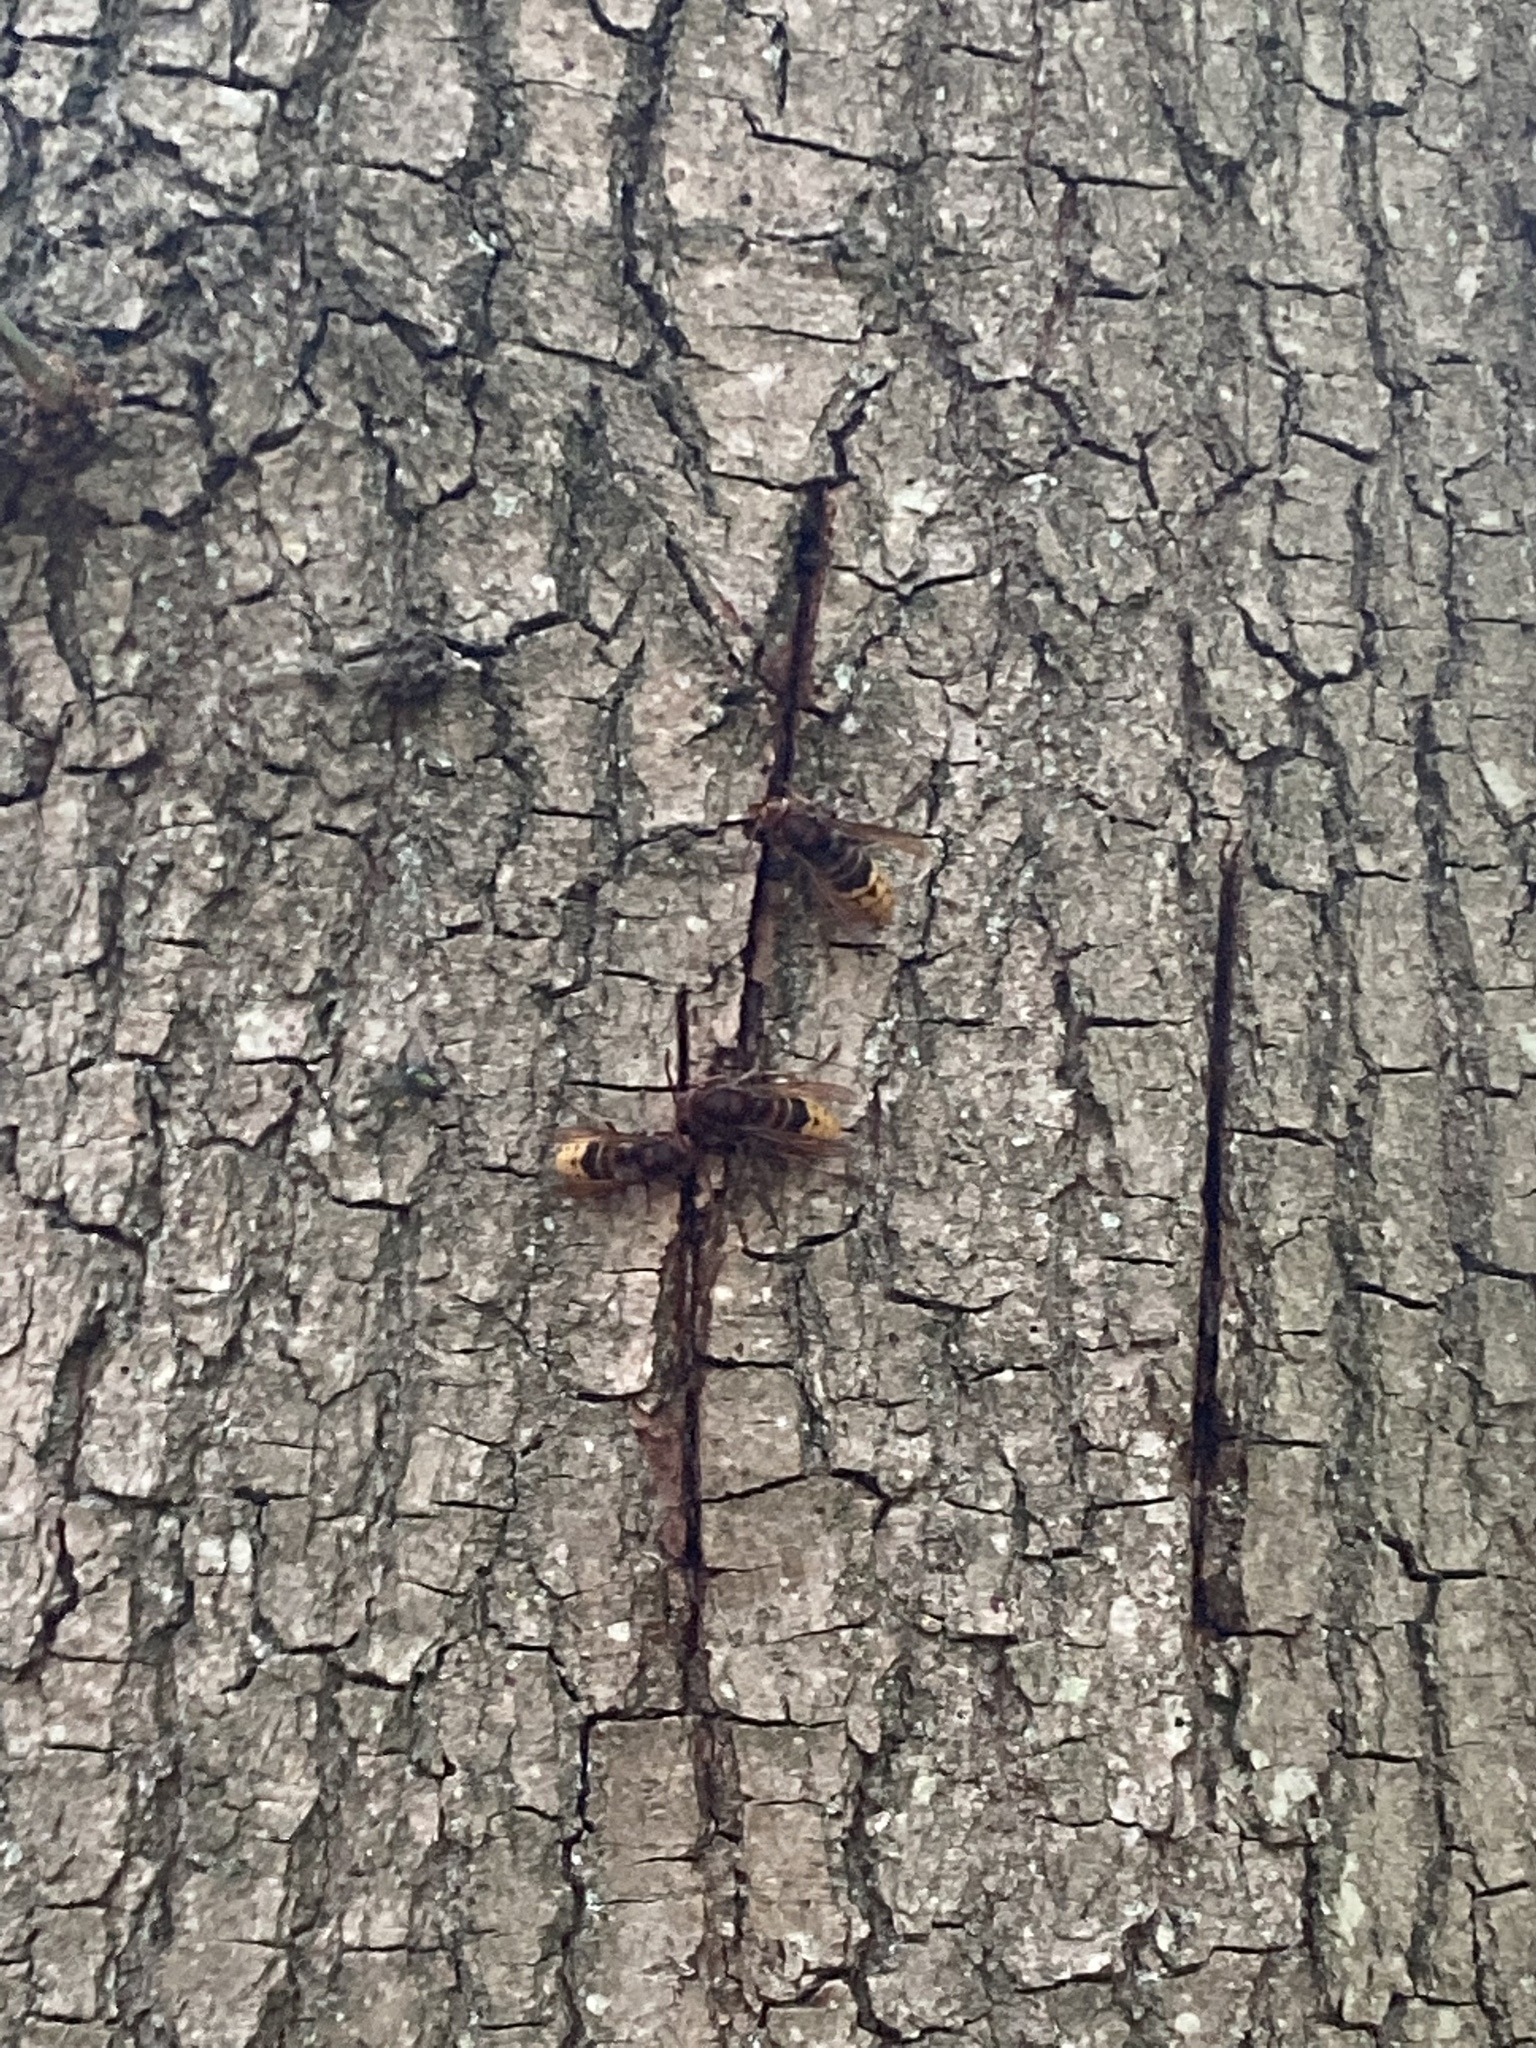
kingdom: Animalia
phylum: Arthropoda
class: Insecta
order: Hymenoptera
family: Vespidae
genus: Vespa
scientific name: Vespa crabro
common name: Hornet
